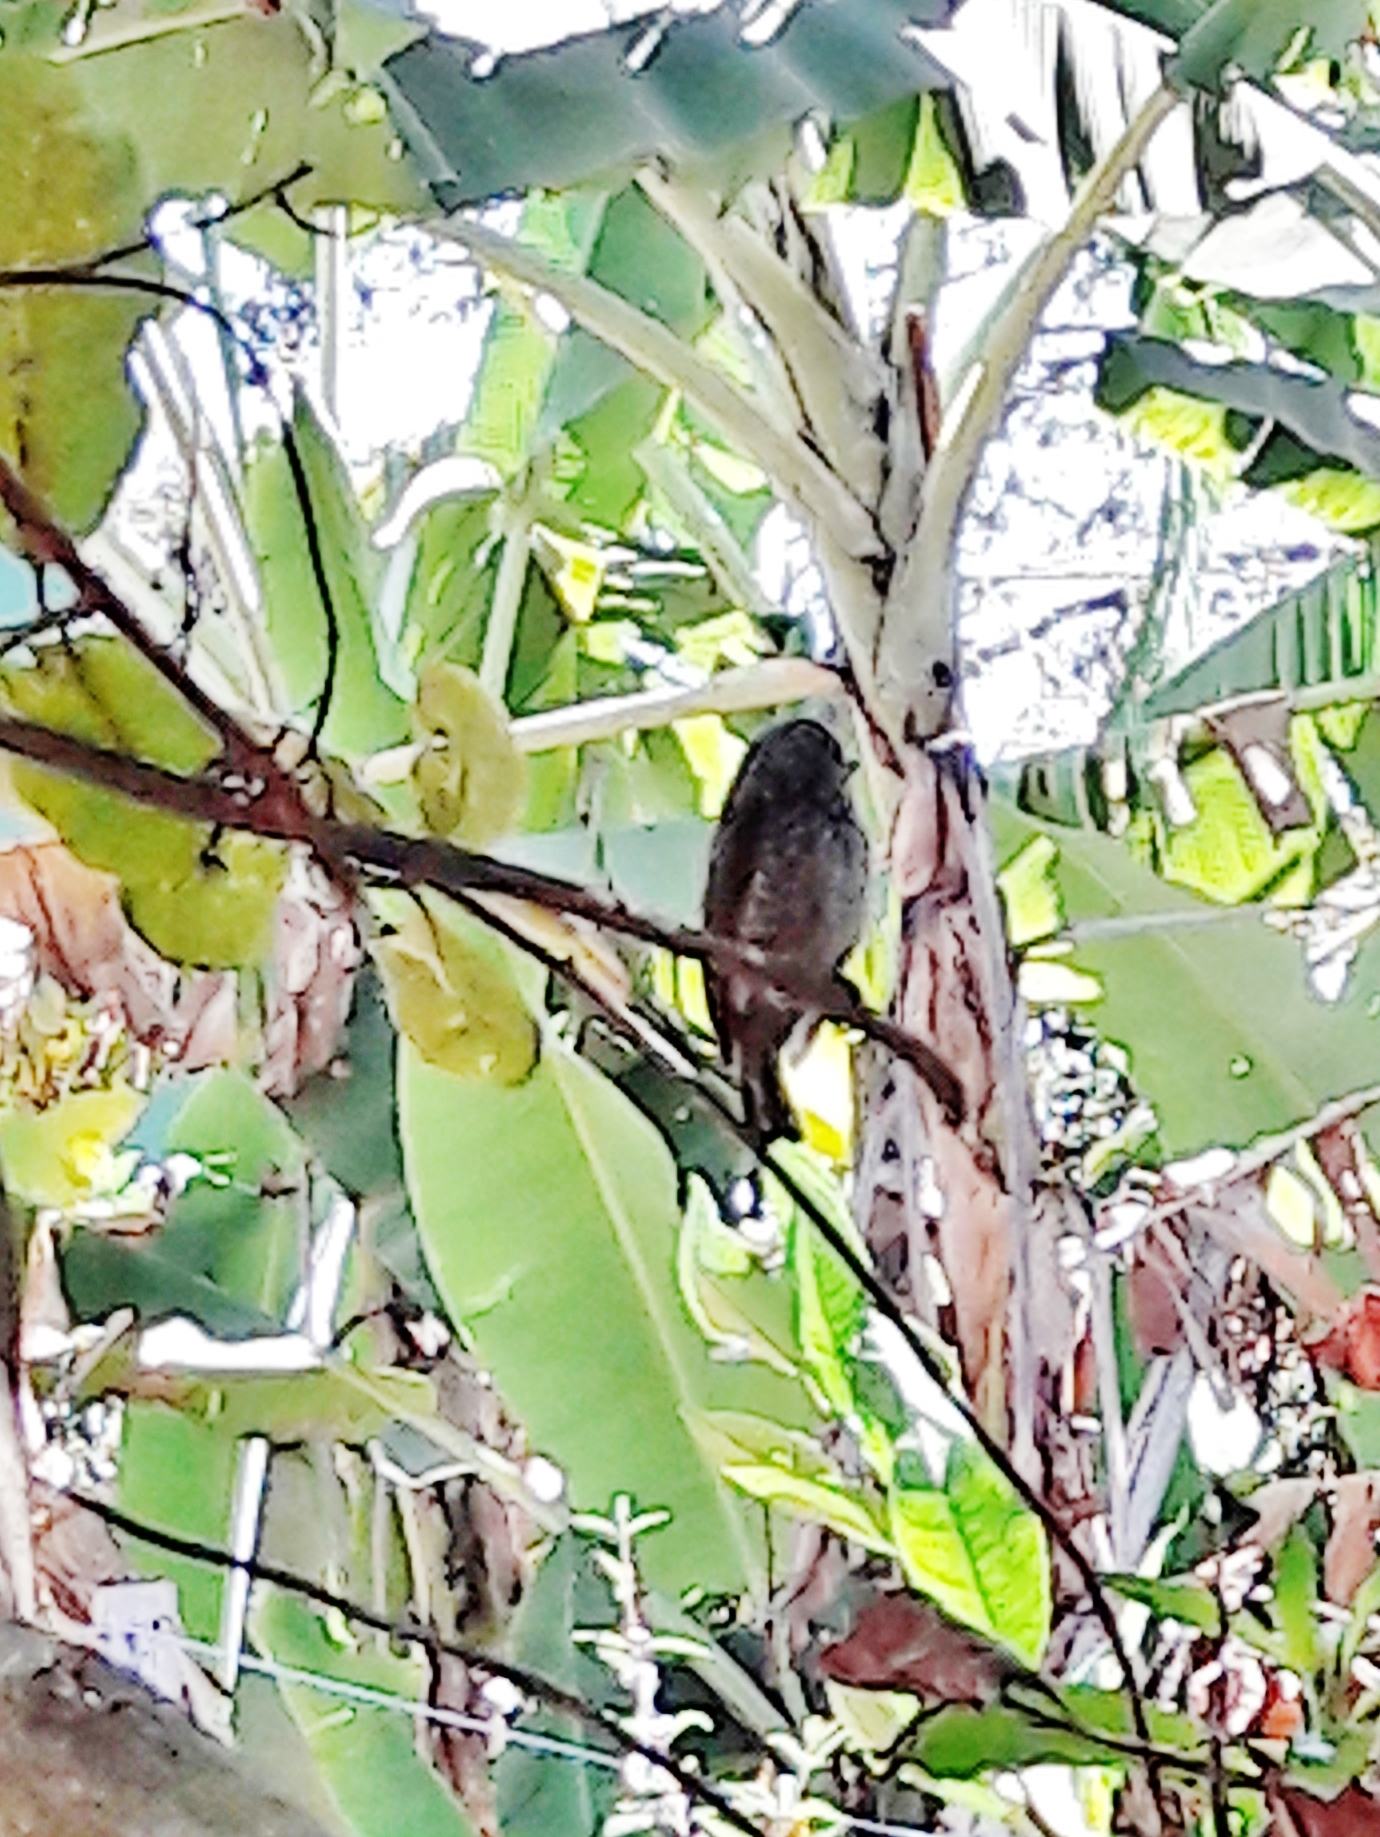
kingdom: Animalia
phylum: Chordata
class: Aves
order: Piciformes
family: Picidae
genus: Picumnus
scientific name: Picumnus albosquamatus
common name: White-wedged piculet
